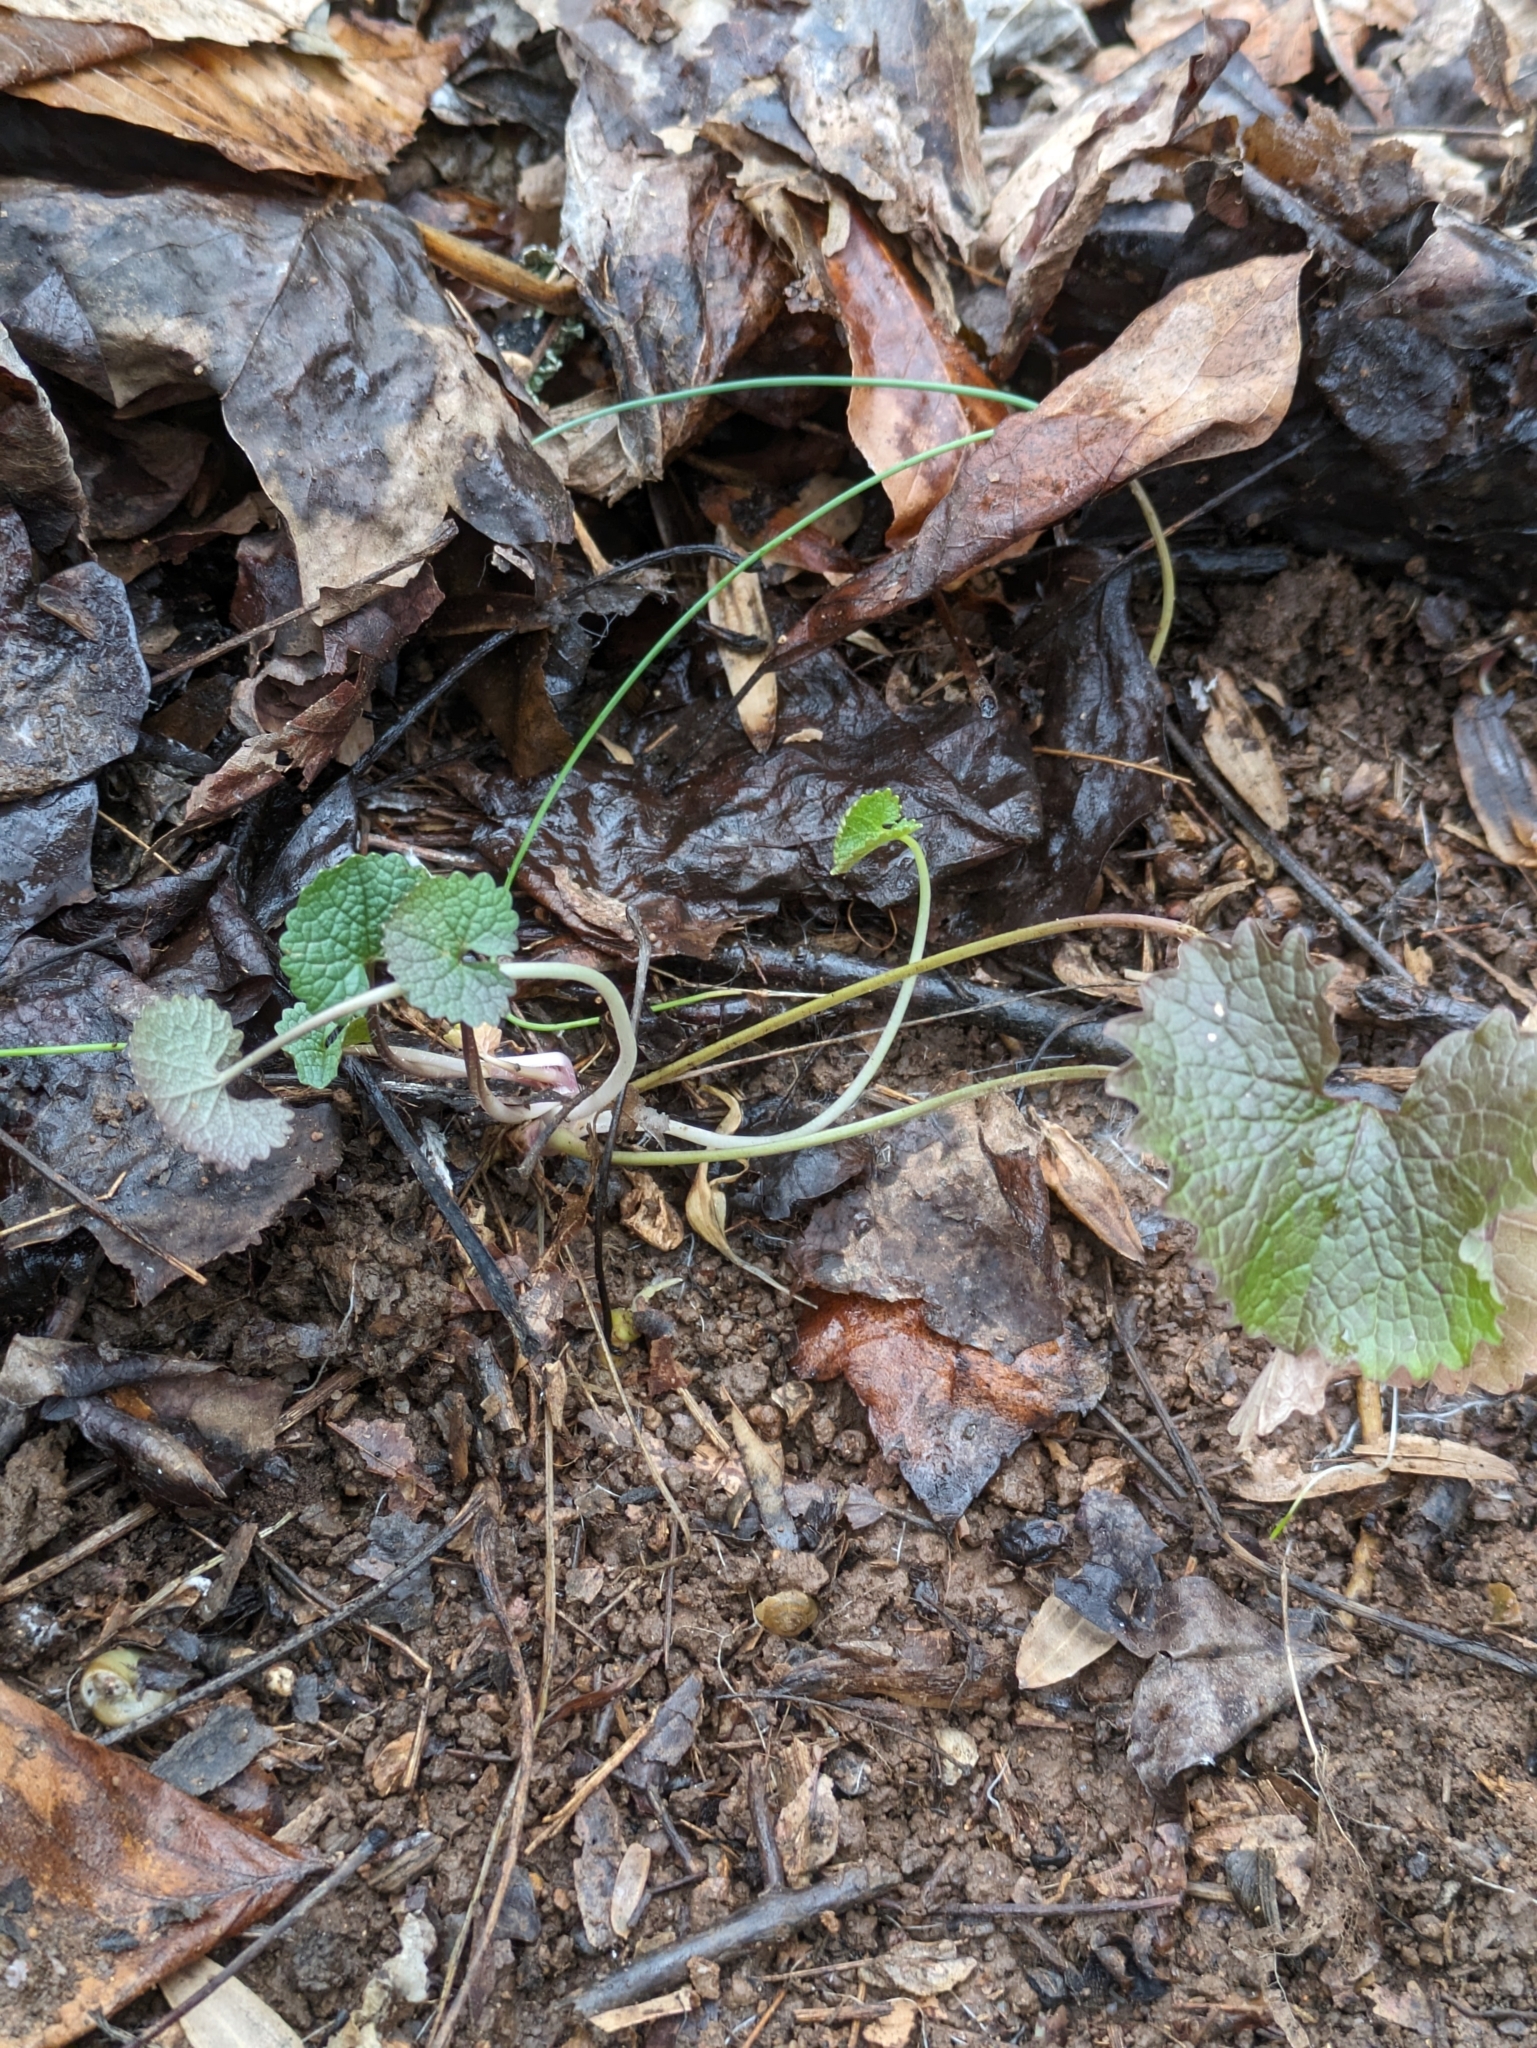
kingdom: Plantae
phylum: Tracheophyta
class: Magnoliopsida
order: Brassicales
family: Brassicaceae
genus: Alliaria
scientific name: Alliaria petiolata
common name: Garlic mustard
